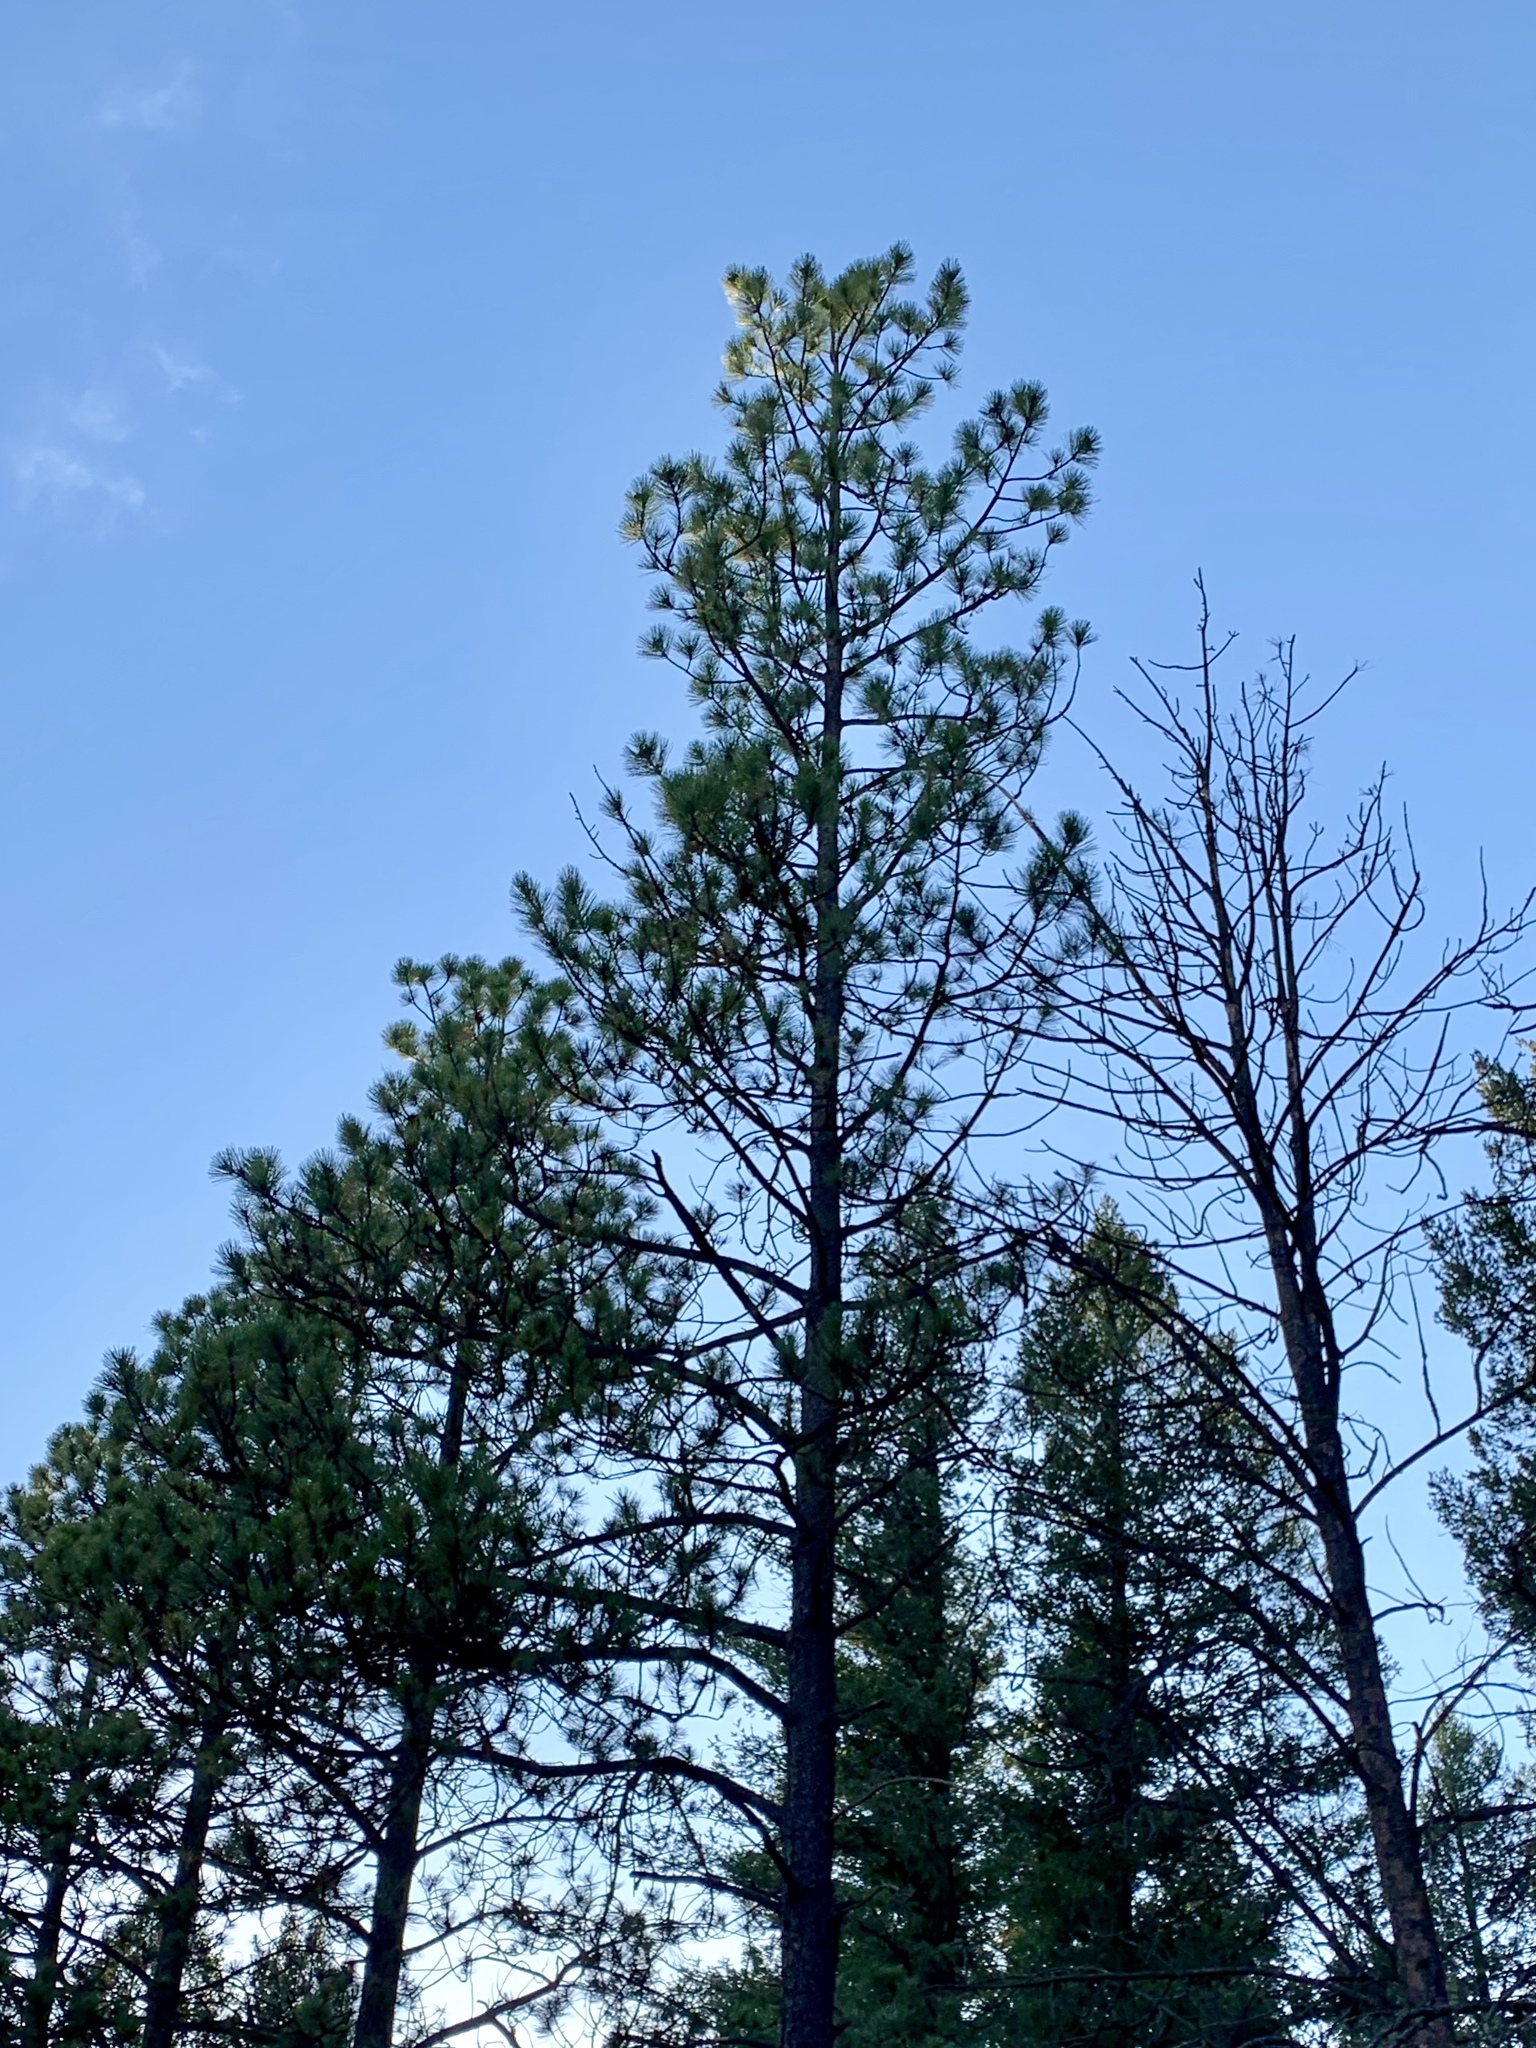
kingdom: Plantae
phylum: Tracheophyta
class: Pinopsida
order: Pinales
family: Pinaceae
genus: Pinus
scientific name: Pinus ponderosa
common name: Western yellow-pine
